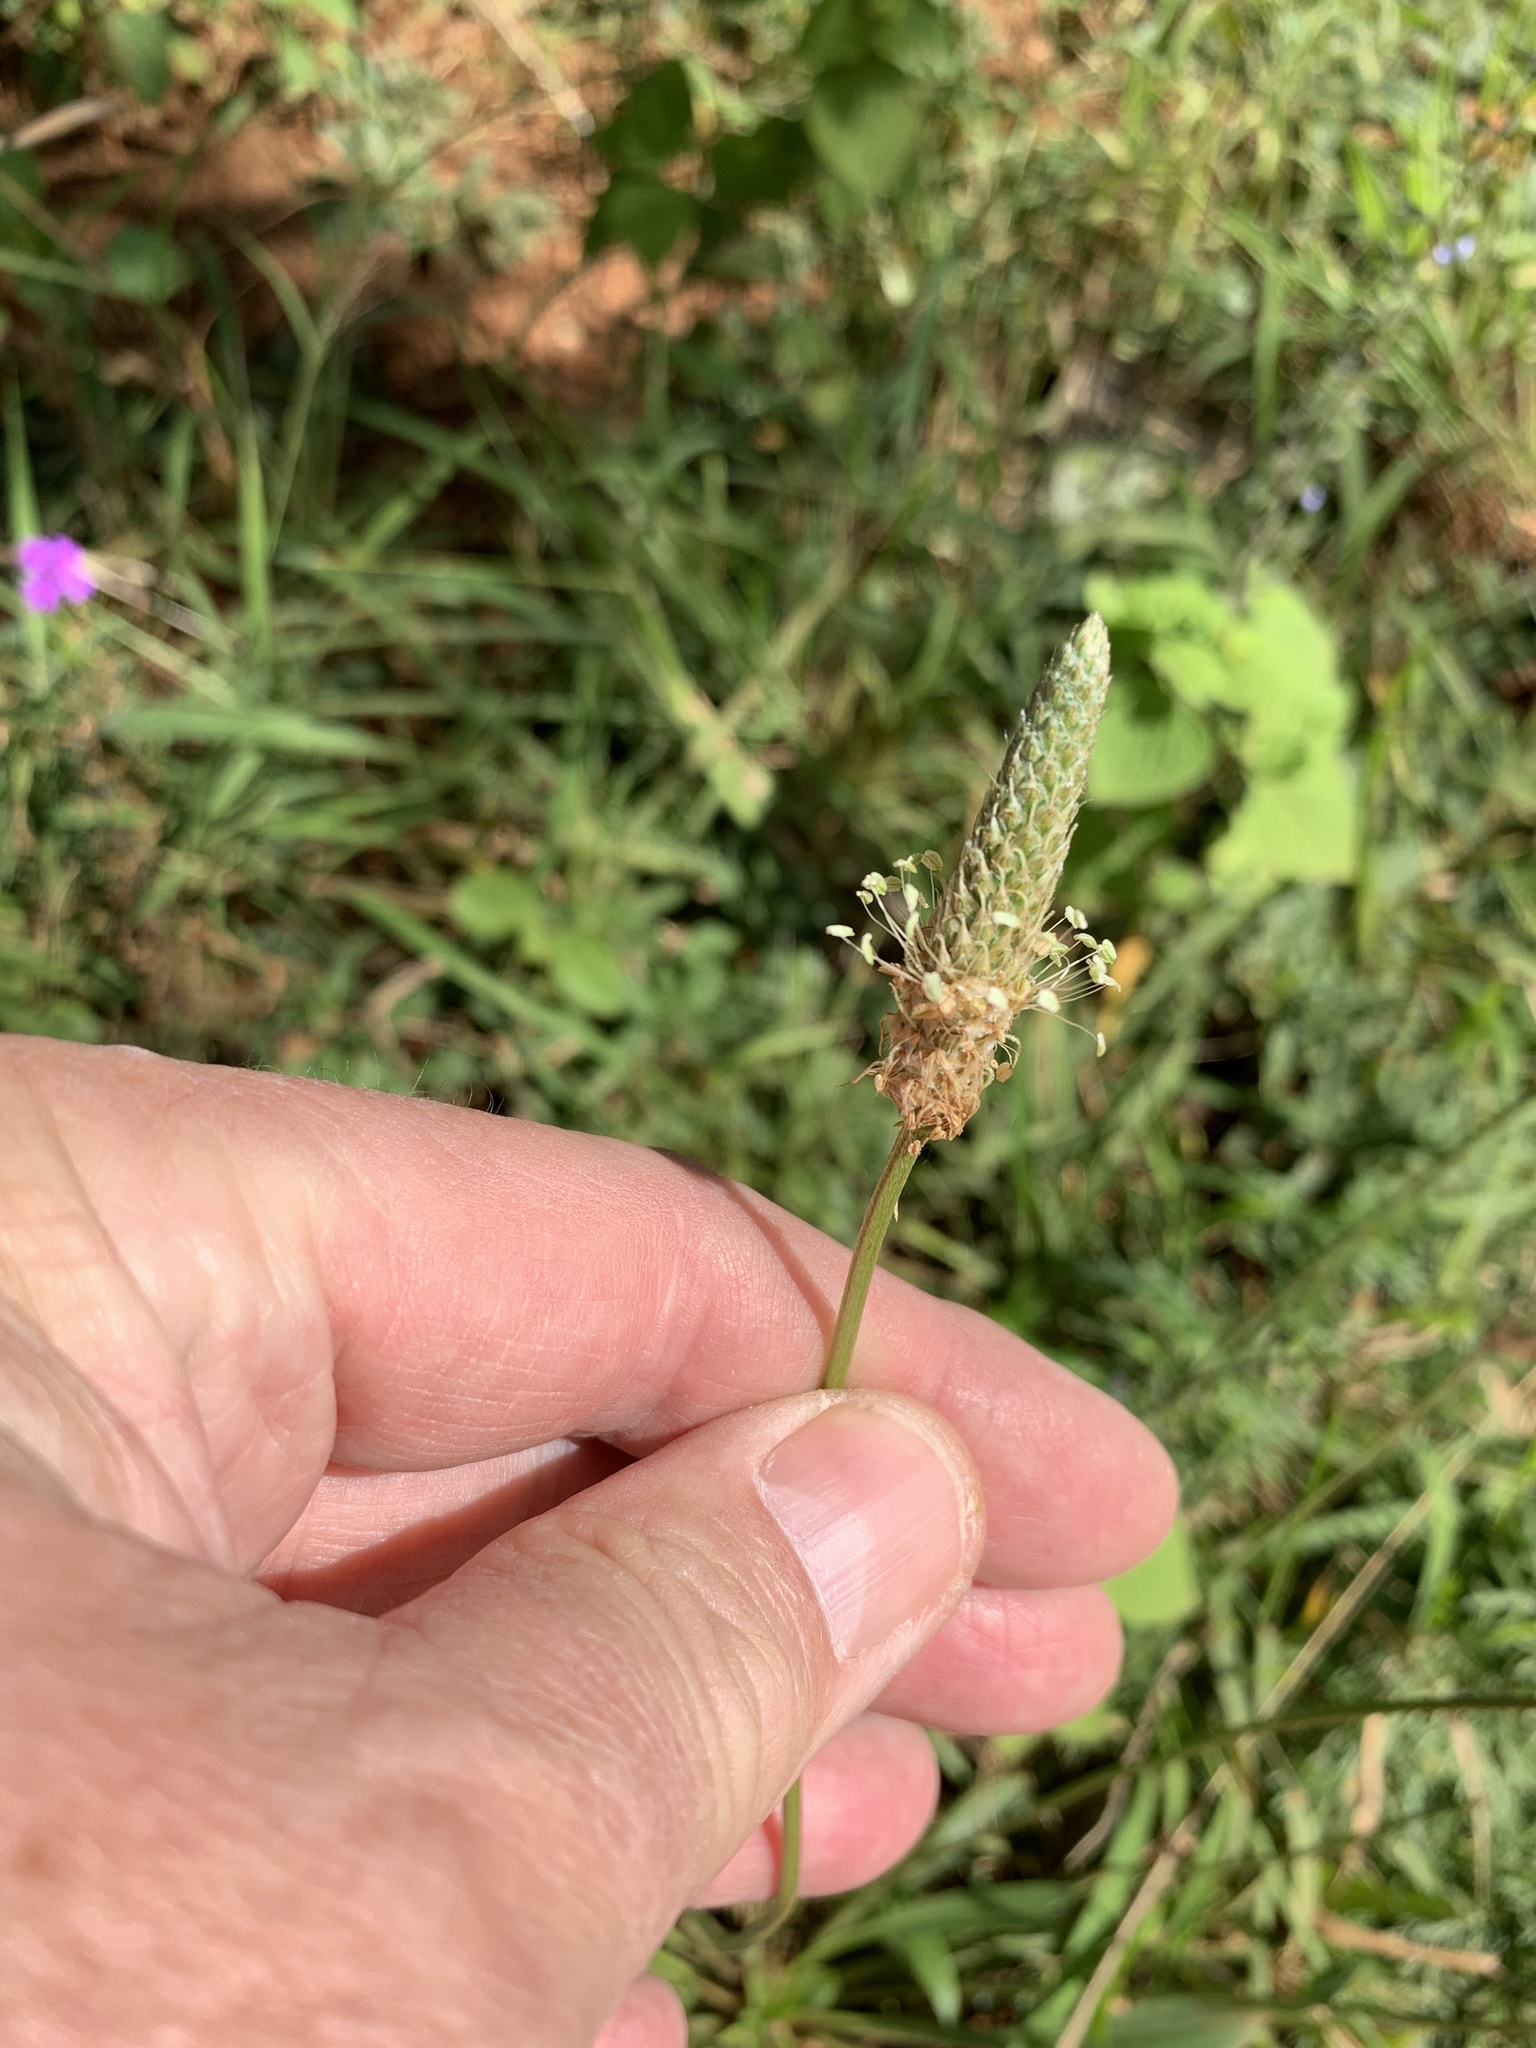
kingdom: Plantae
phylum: Tracheophyta
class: Magnoliopsida
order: Lamiales
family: Plantaginaceae
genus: Plantago
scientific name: Plantago lanceolata
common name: Ribwort plantain
